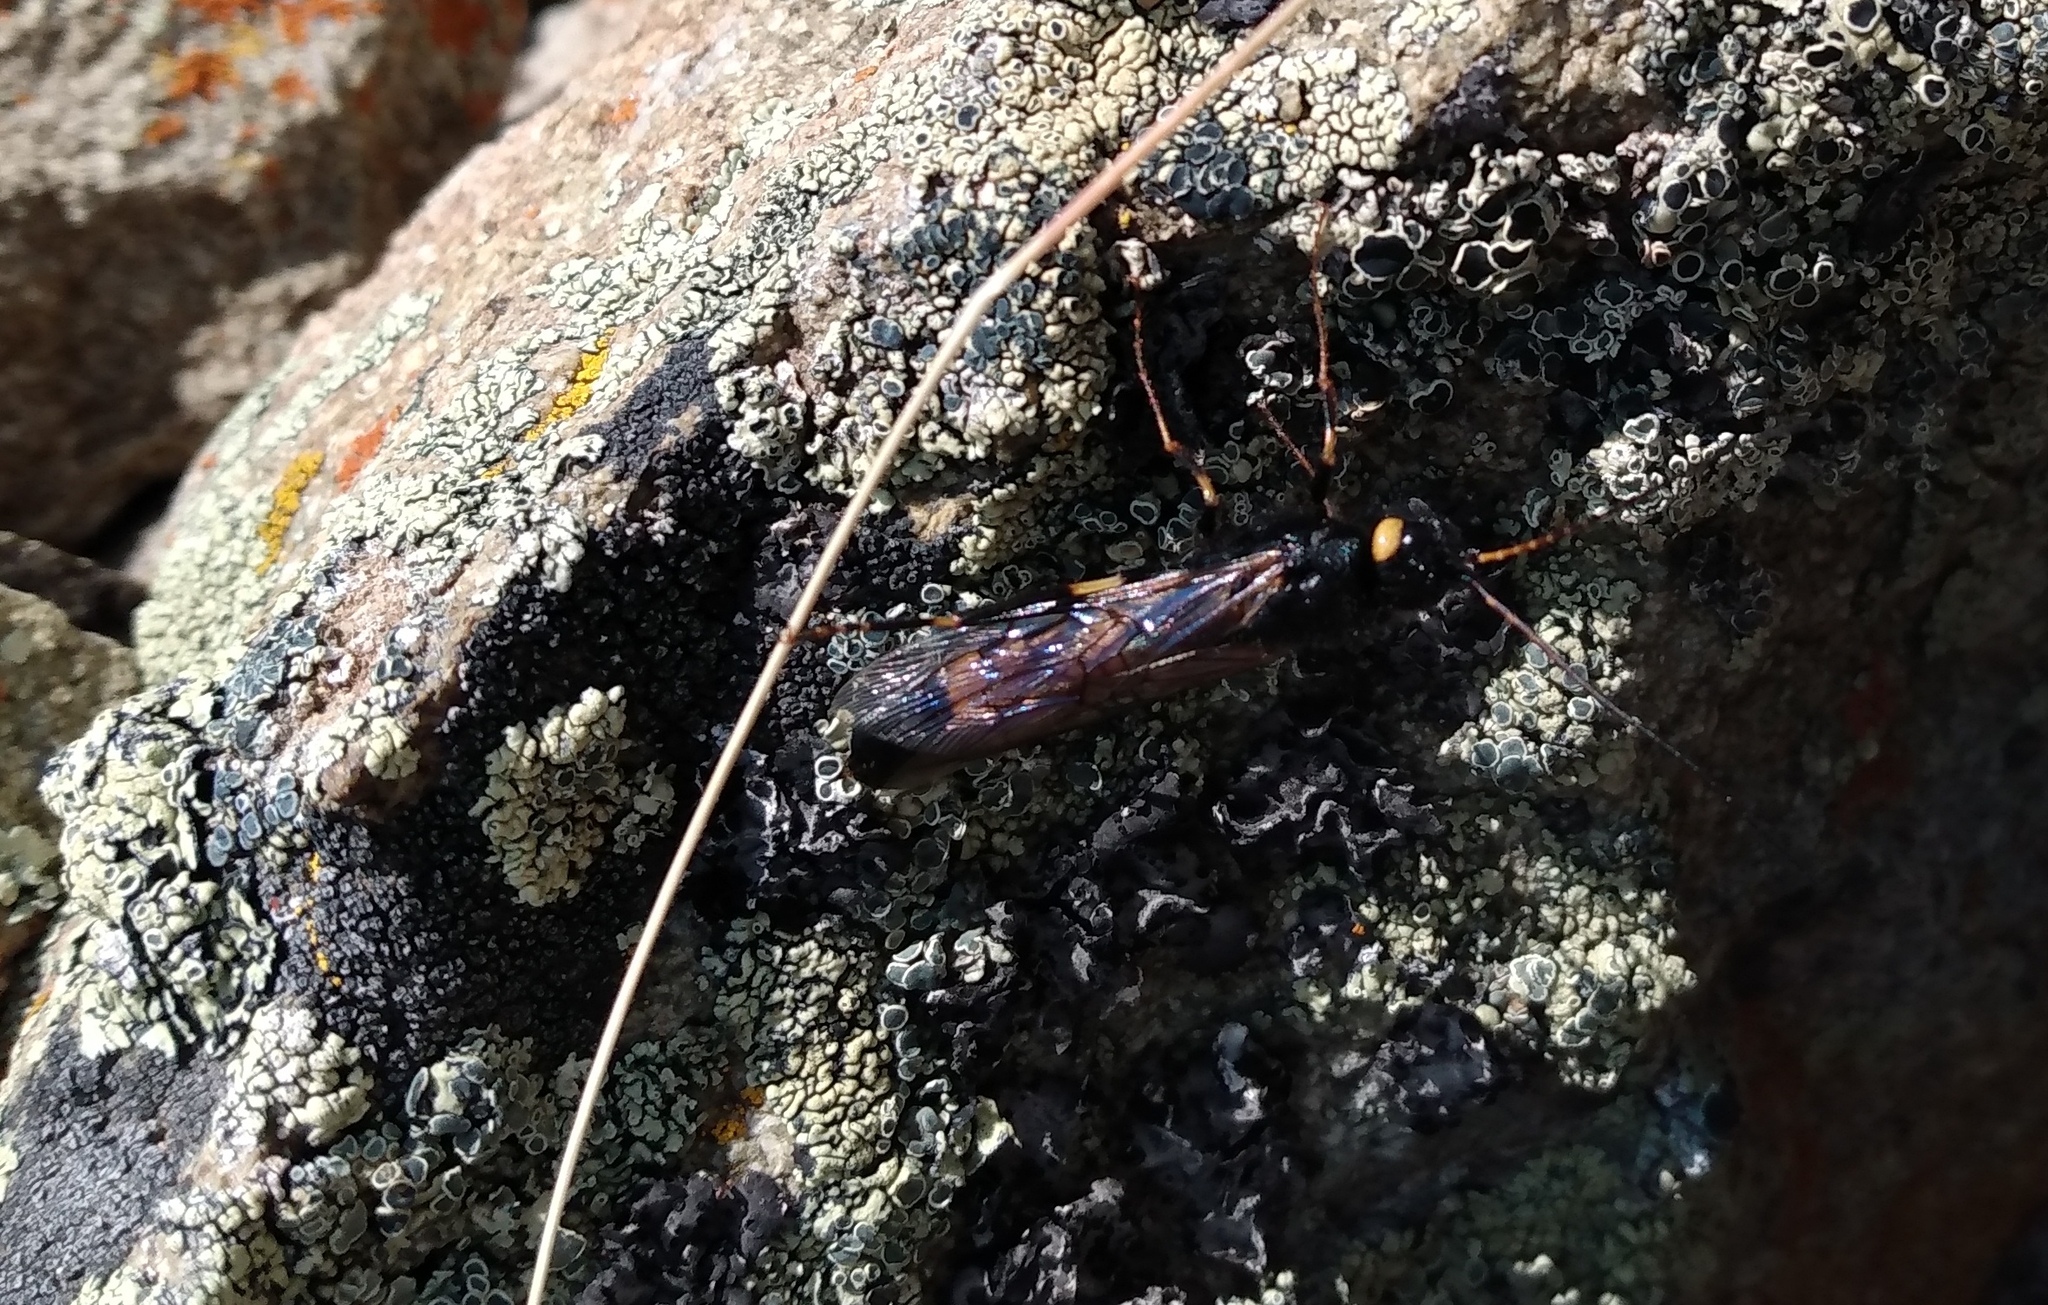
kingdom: Animalia
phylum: Arthropoda
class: Insecta
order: Hymenoptera
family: Siricidae
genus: Urocerus
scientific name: Urocerus flavicornis
